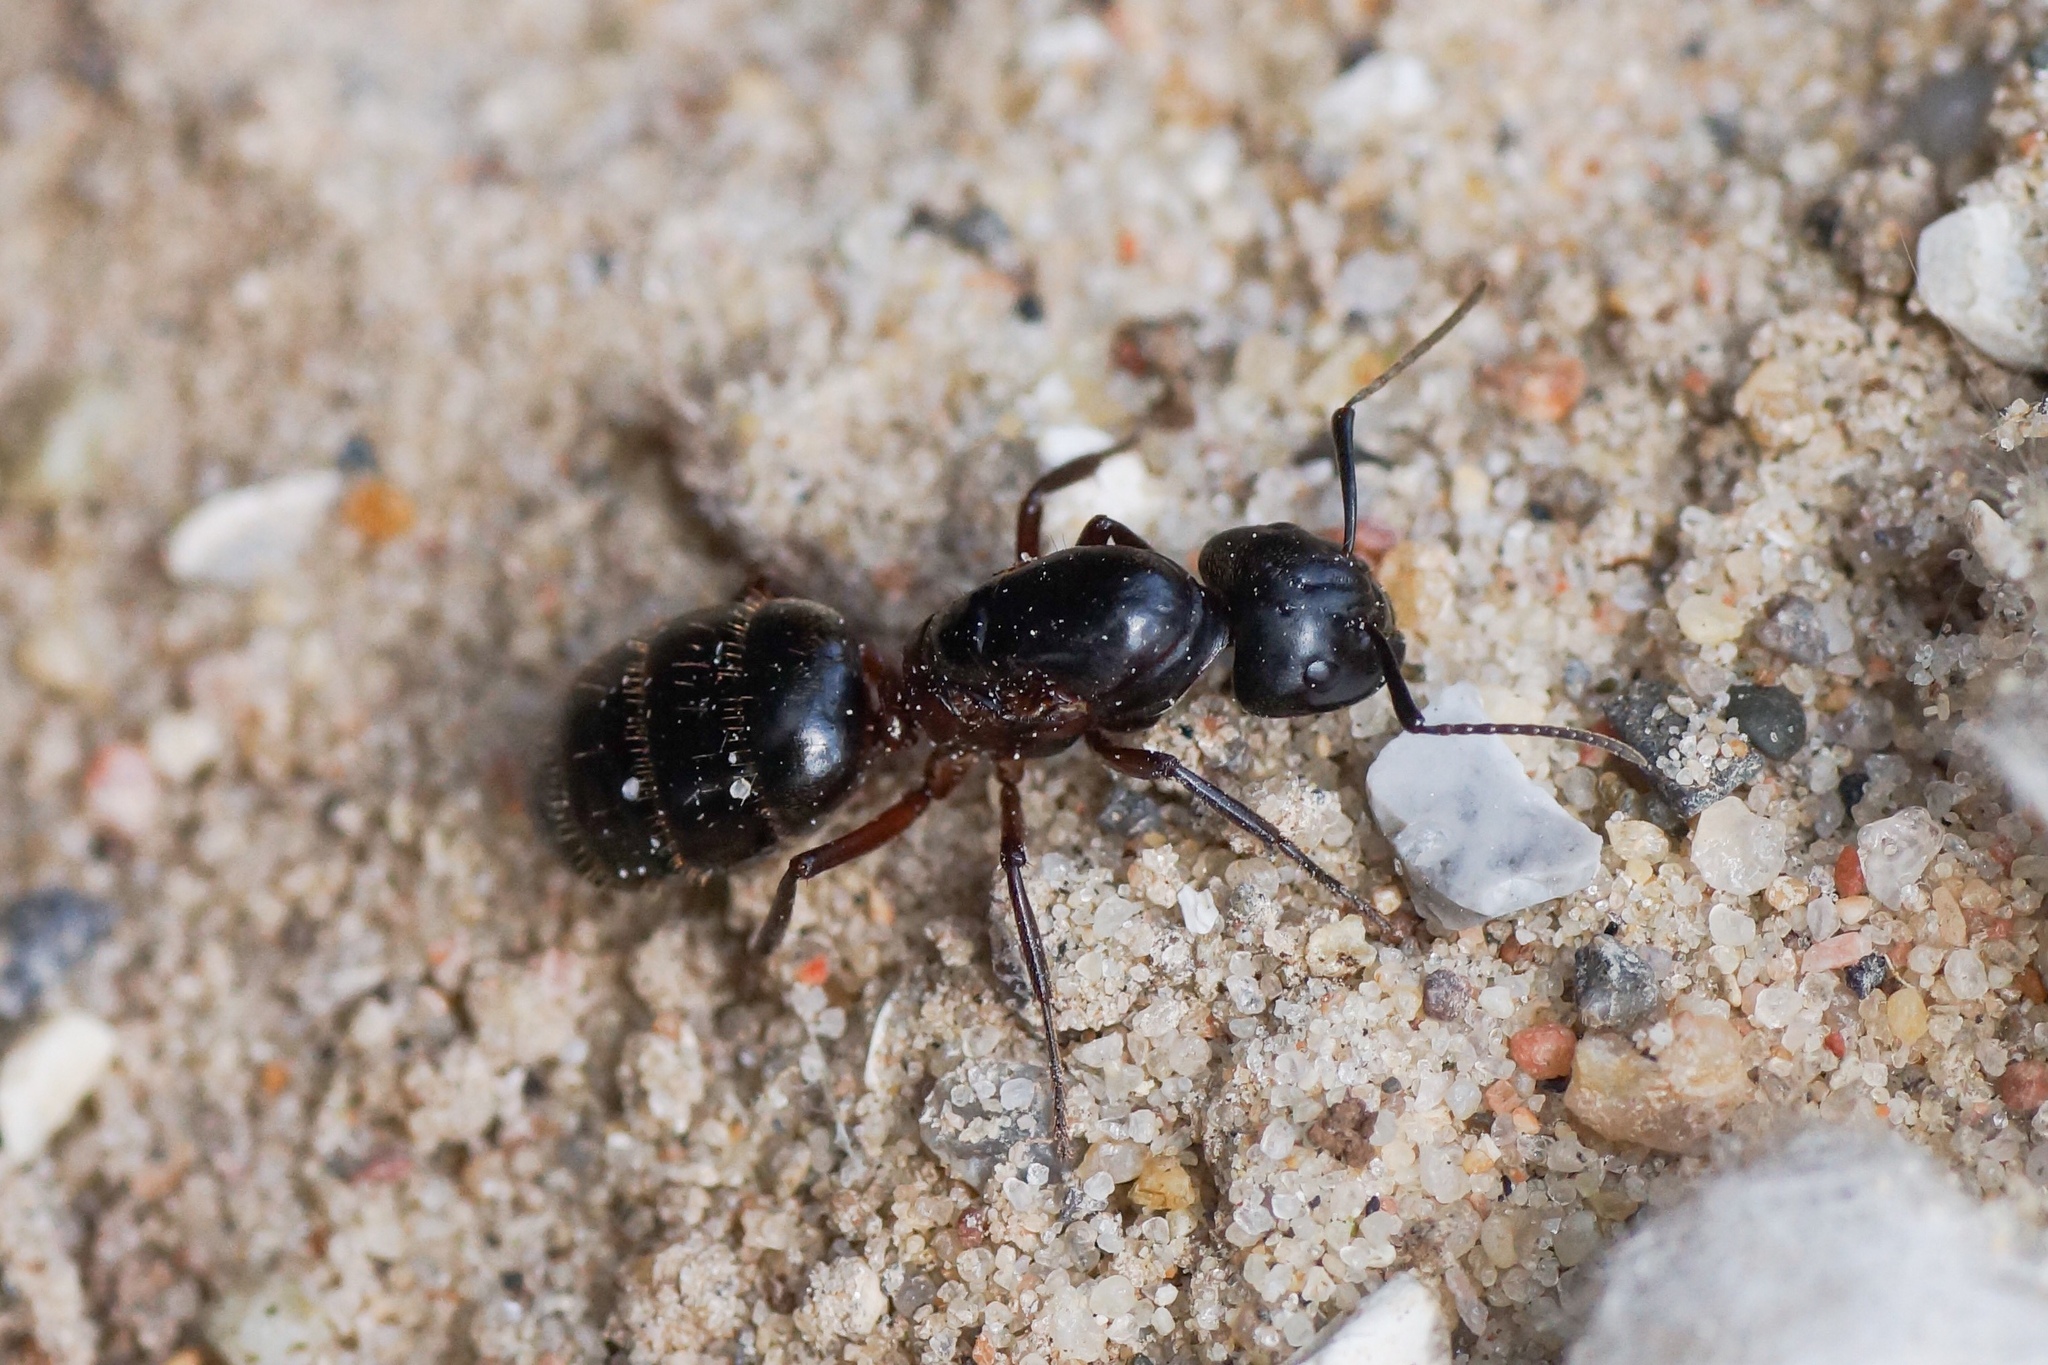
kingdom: Animalia
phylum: Arthropoda
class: Insecta
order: Hymenoptera
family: Formicidae
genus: Camponotus
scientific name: Camponotus herculeanus
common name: Hercules ant
